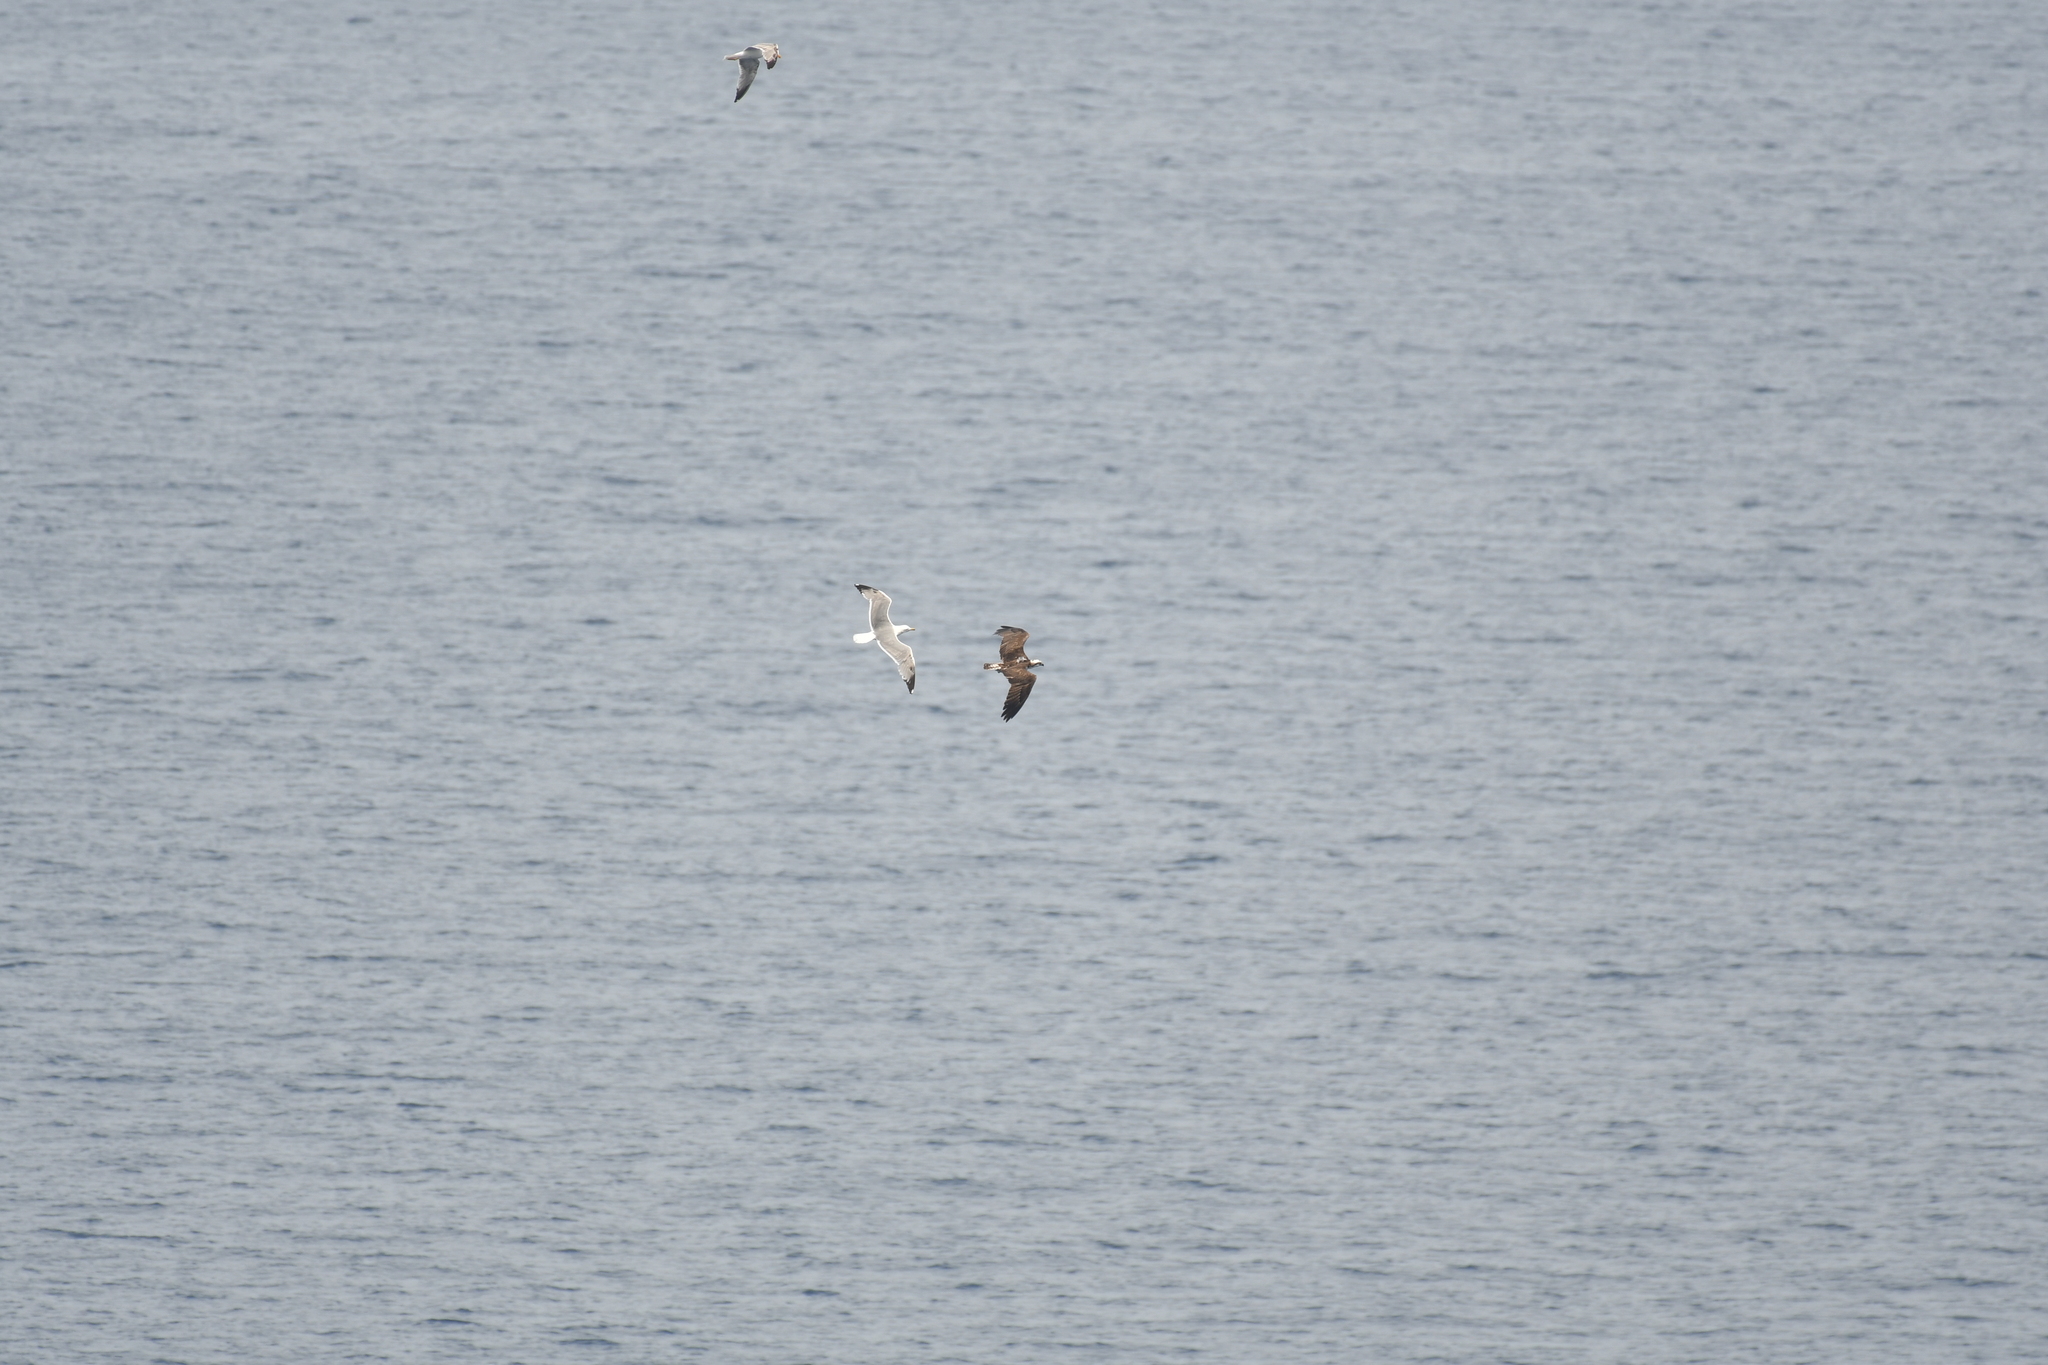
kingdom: Animalia
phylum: Chordata
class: Aves
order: Accipitriformes
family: Pandionidae
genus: Pandion
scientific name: Pandion haliaetus
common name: Osprey
